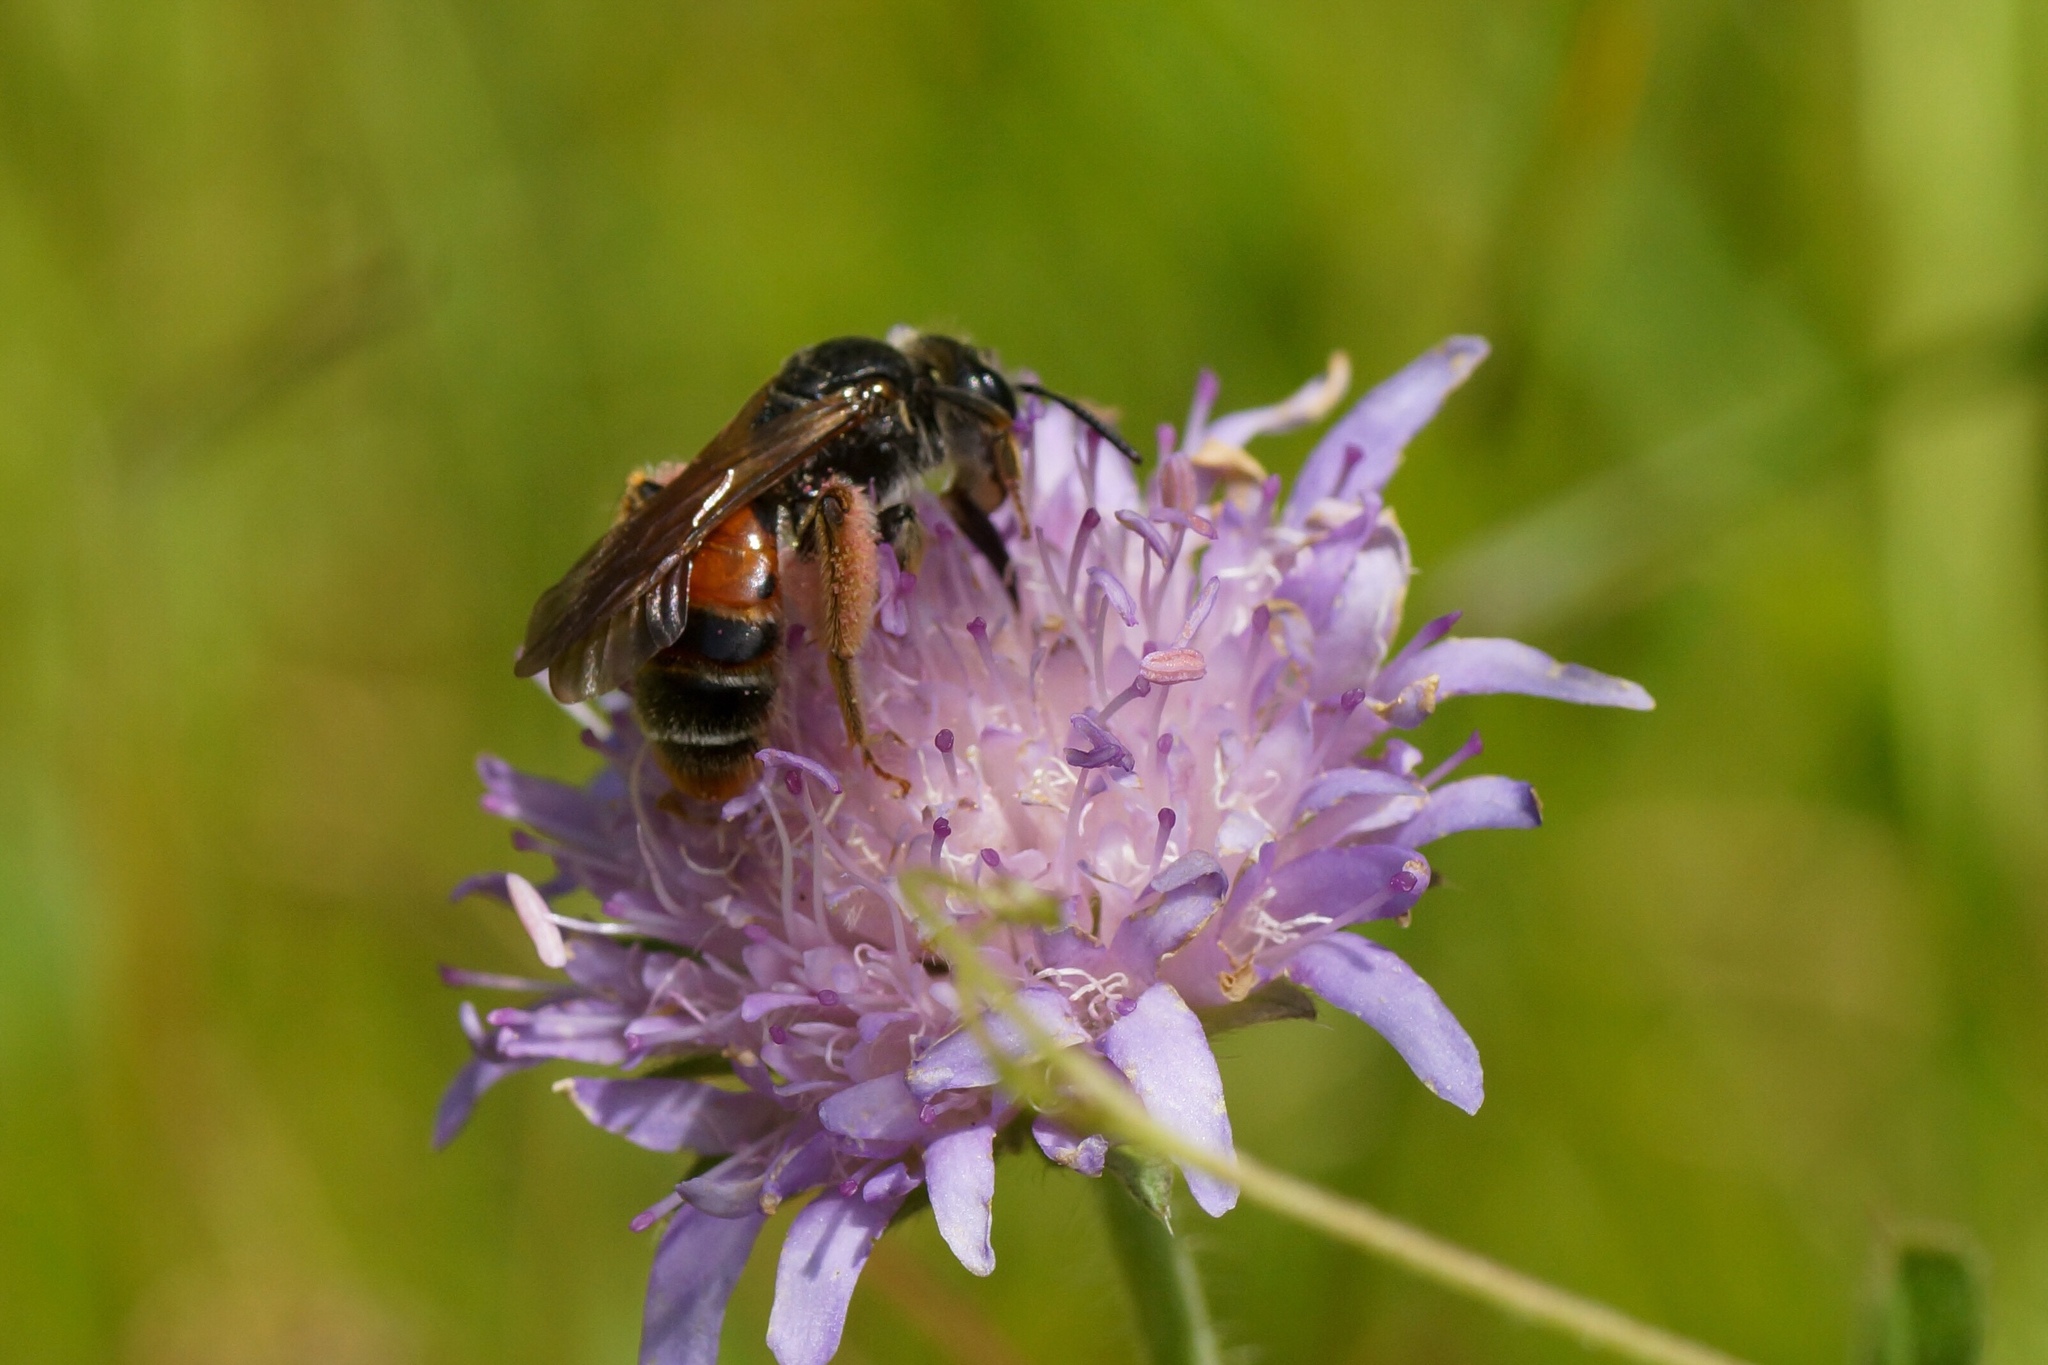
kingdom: Animalia
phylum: Arthropoda
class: Insecta
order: Hymenoptera
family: Andrenidae
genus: Andrena
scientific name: Andrena hattorfiana
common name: Large scabious mining bee
